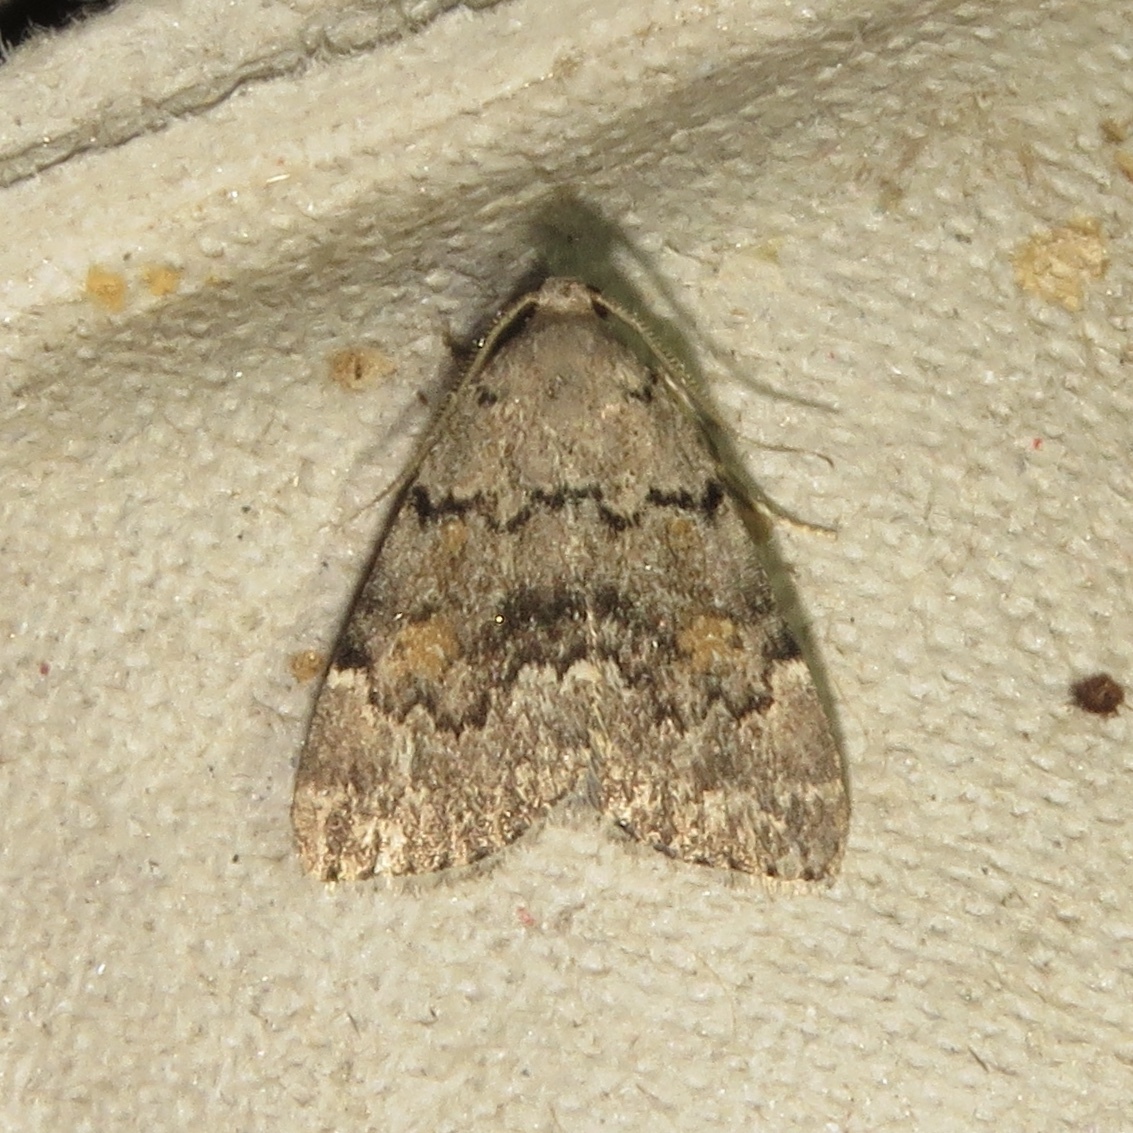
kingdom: Animalia
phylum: Arthropoda
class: Insecta
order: Lepidoptera
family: Erebidae
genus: Idia
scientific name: Idia aemula
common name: Common idia moth
